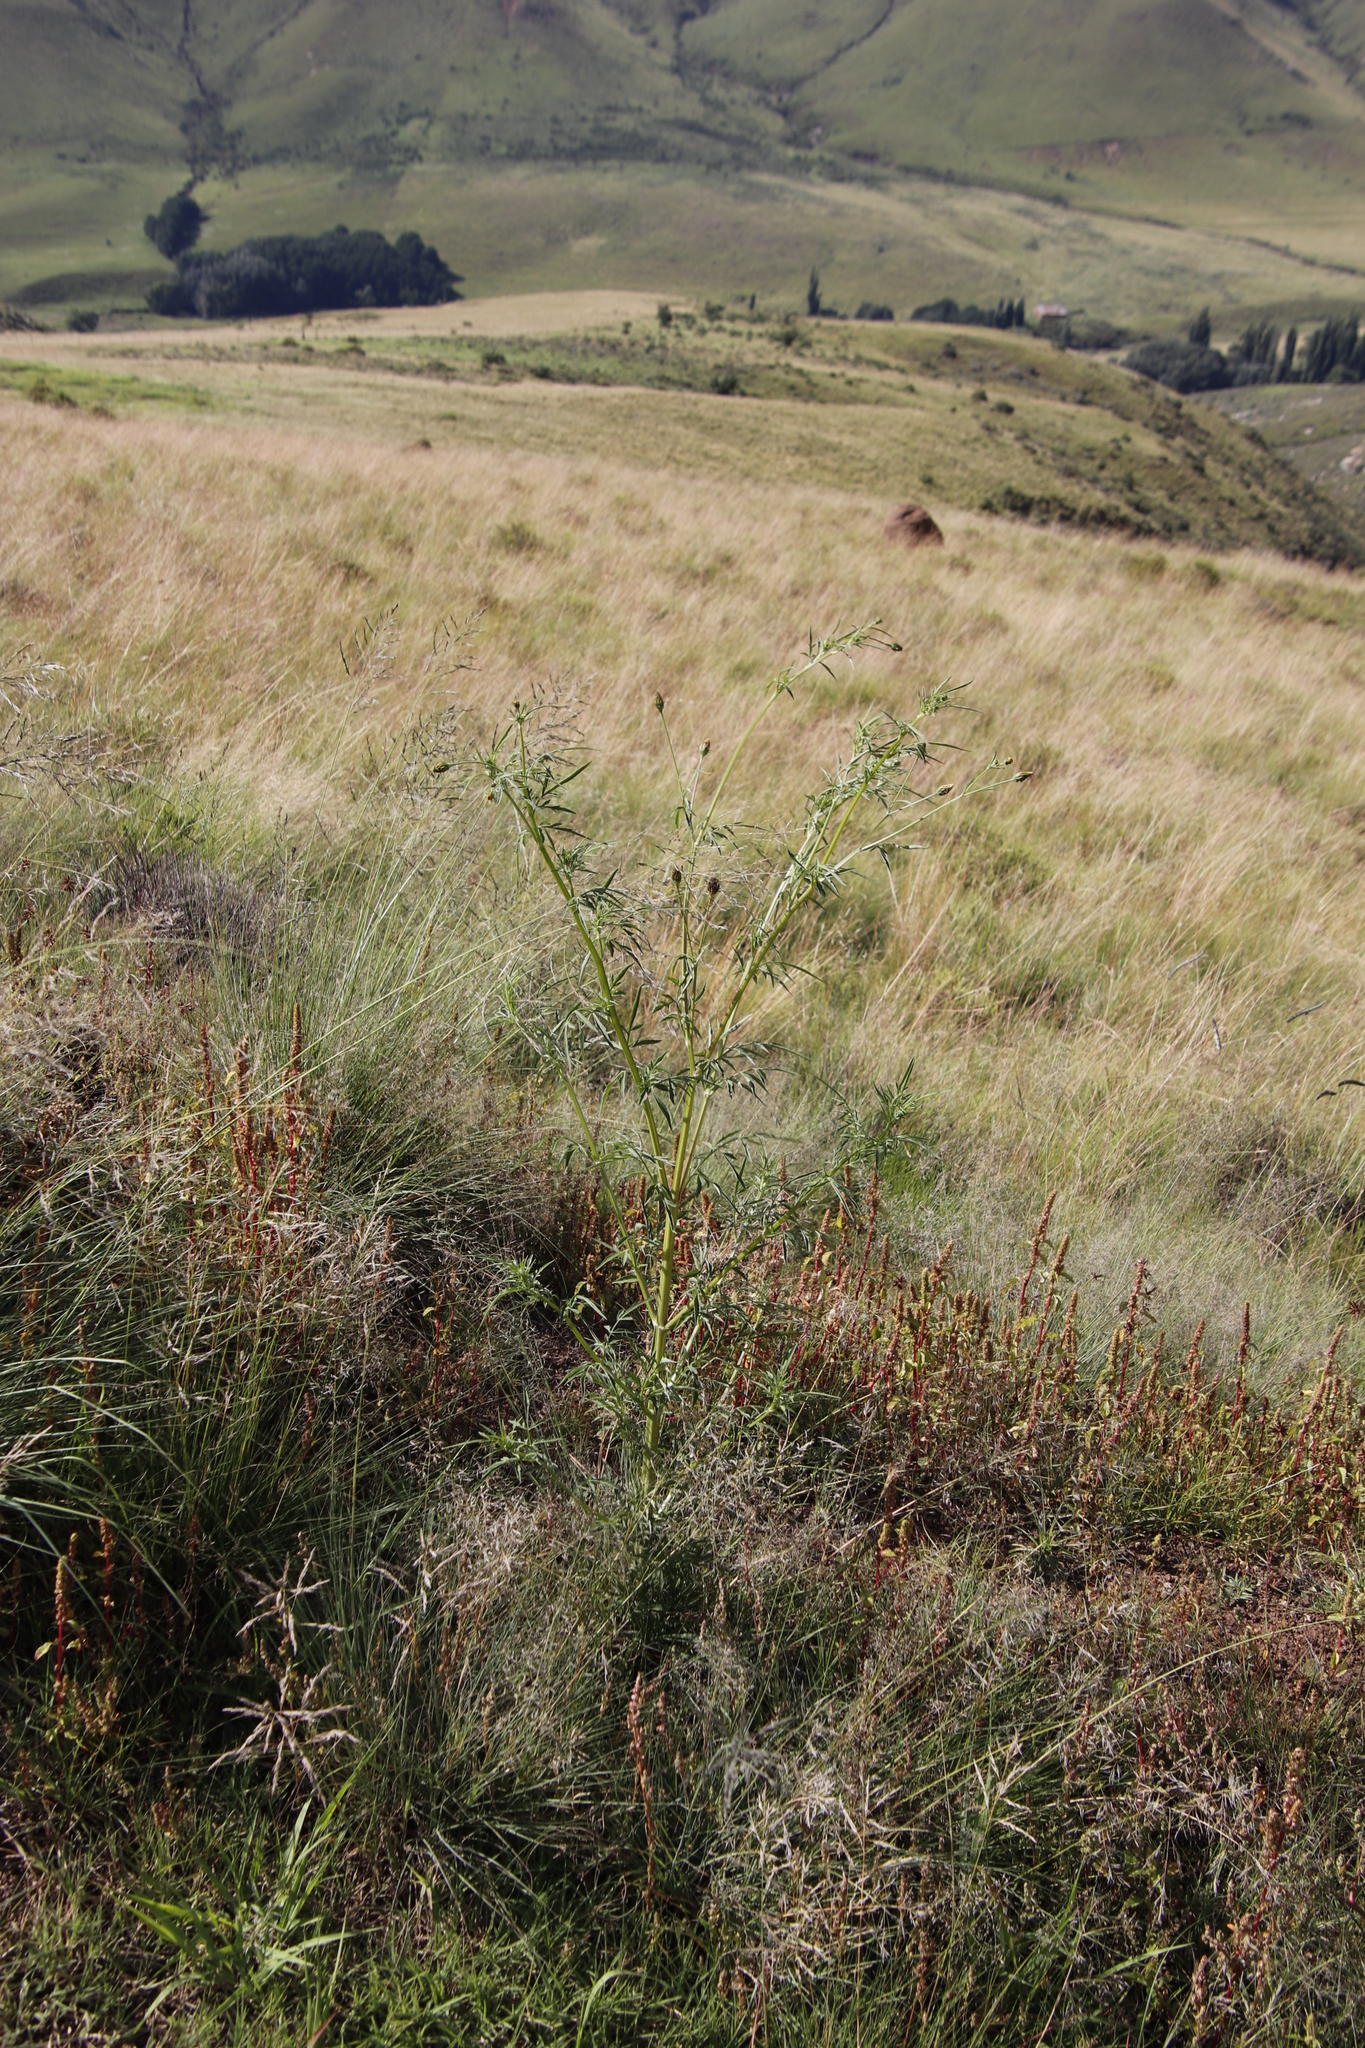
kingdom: Plantae
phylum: Tracheophyta
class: Magnoliopsida
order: Asterales
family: Asteraceae
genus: Bidens
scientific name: Bidens pilosa
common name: Black-jack
